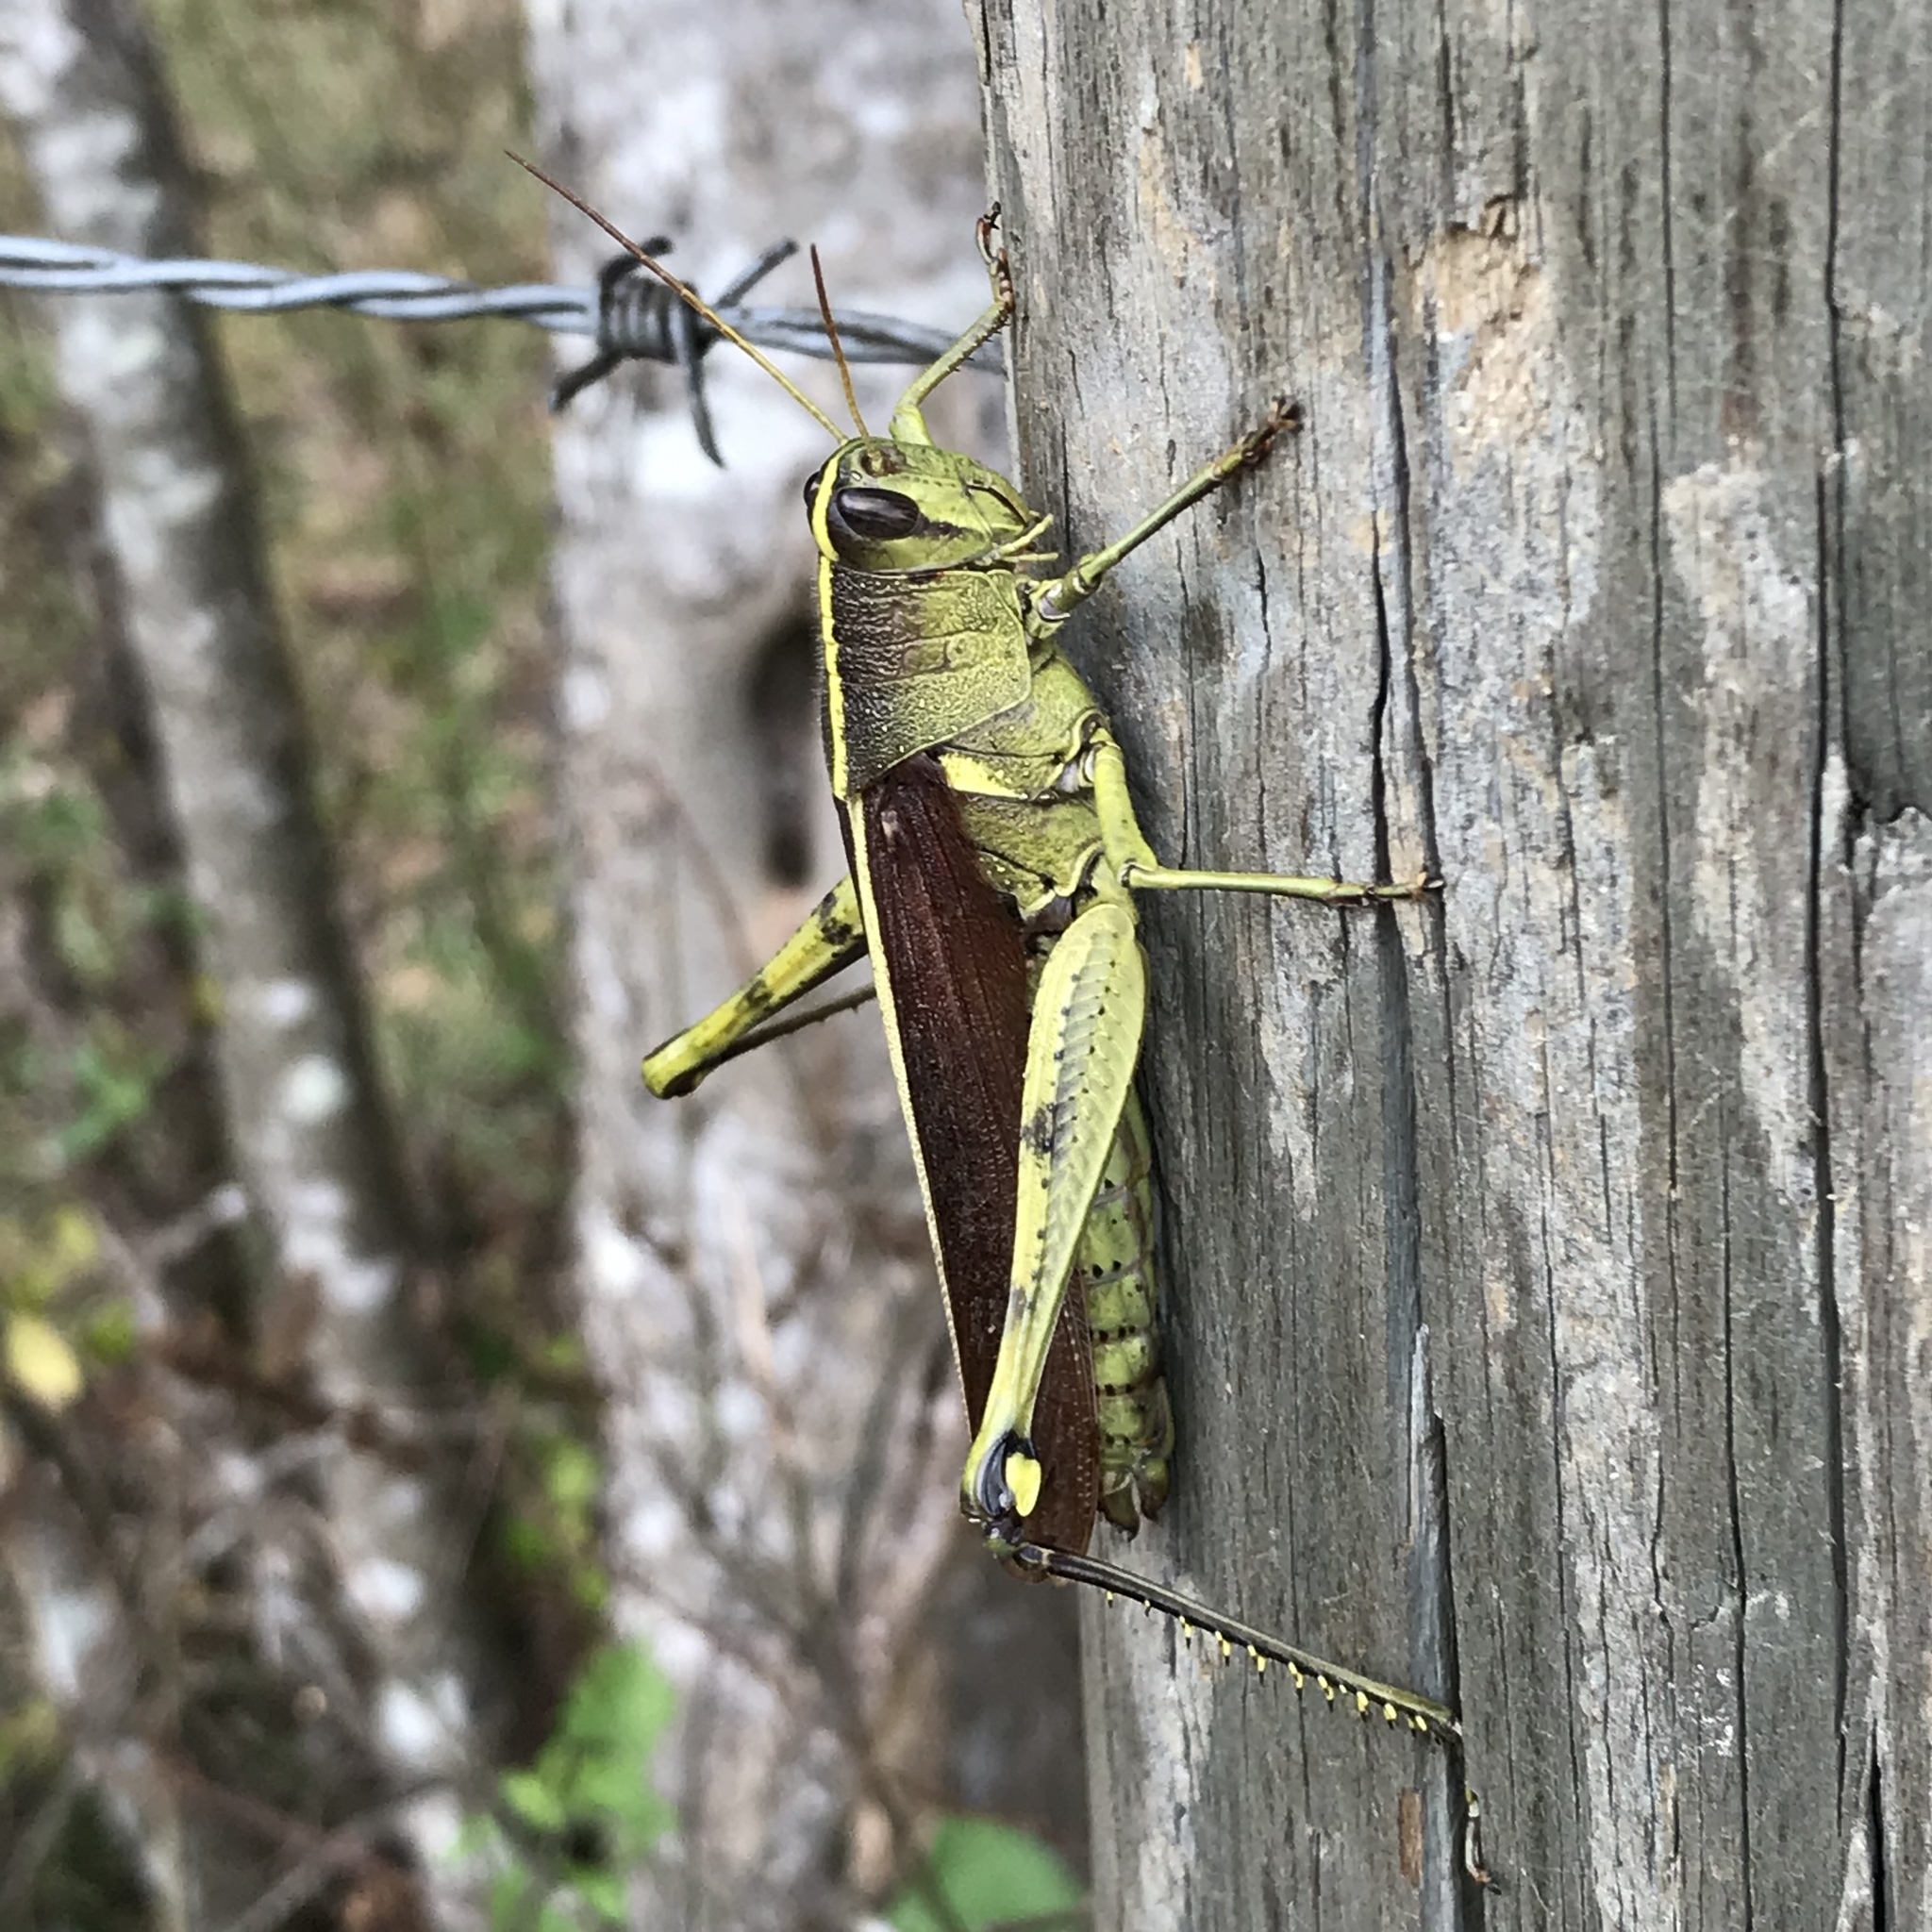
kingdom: Animalia
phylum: Arthropoda
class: Insecta
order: Orthoptera
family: Acrididae
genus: Schistocerca
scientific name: Schistocerca obscura
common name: Obscure bird grasshopper
